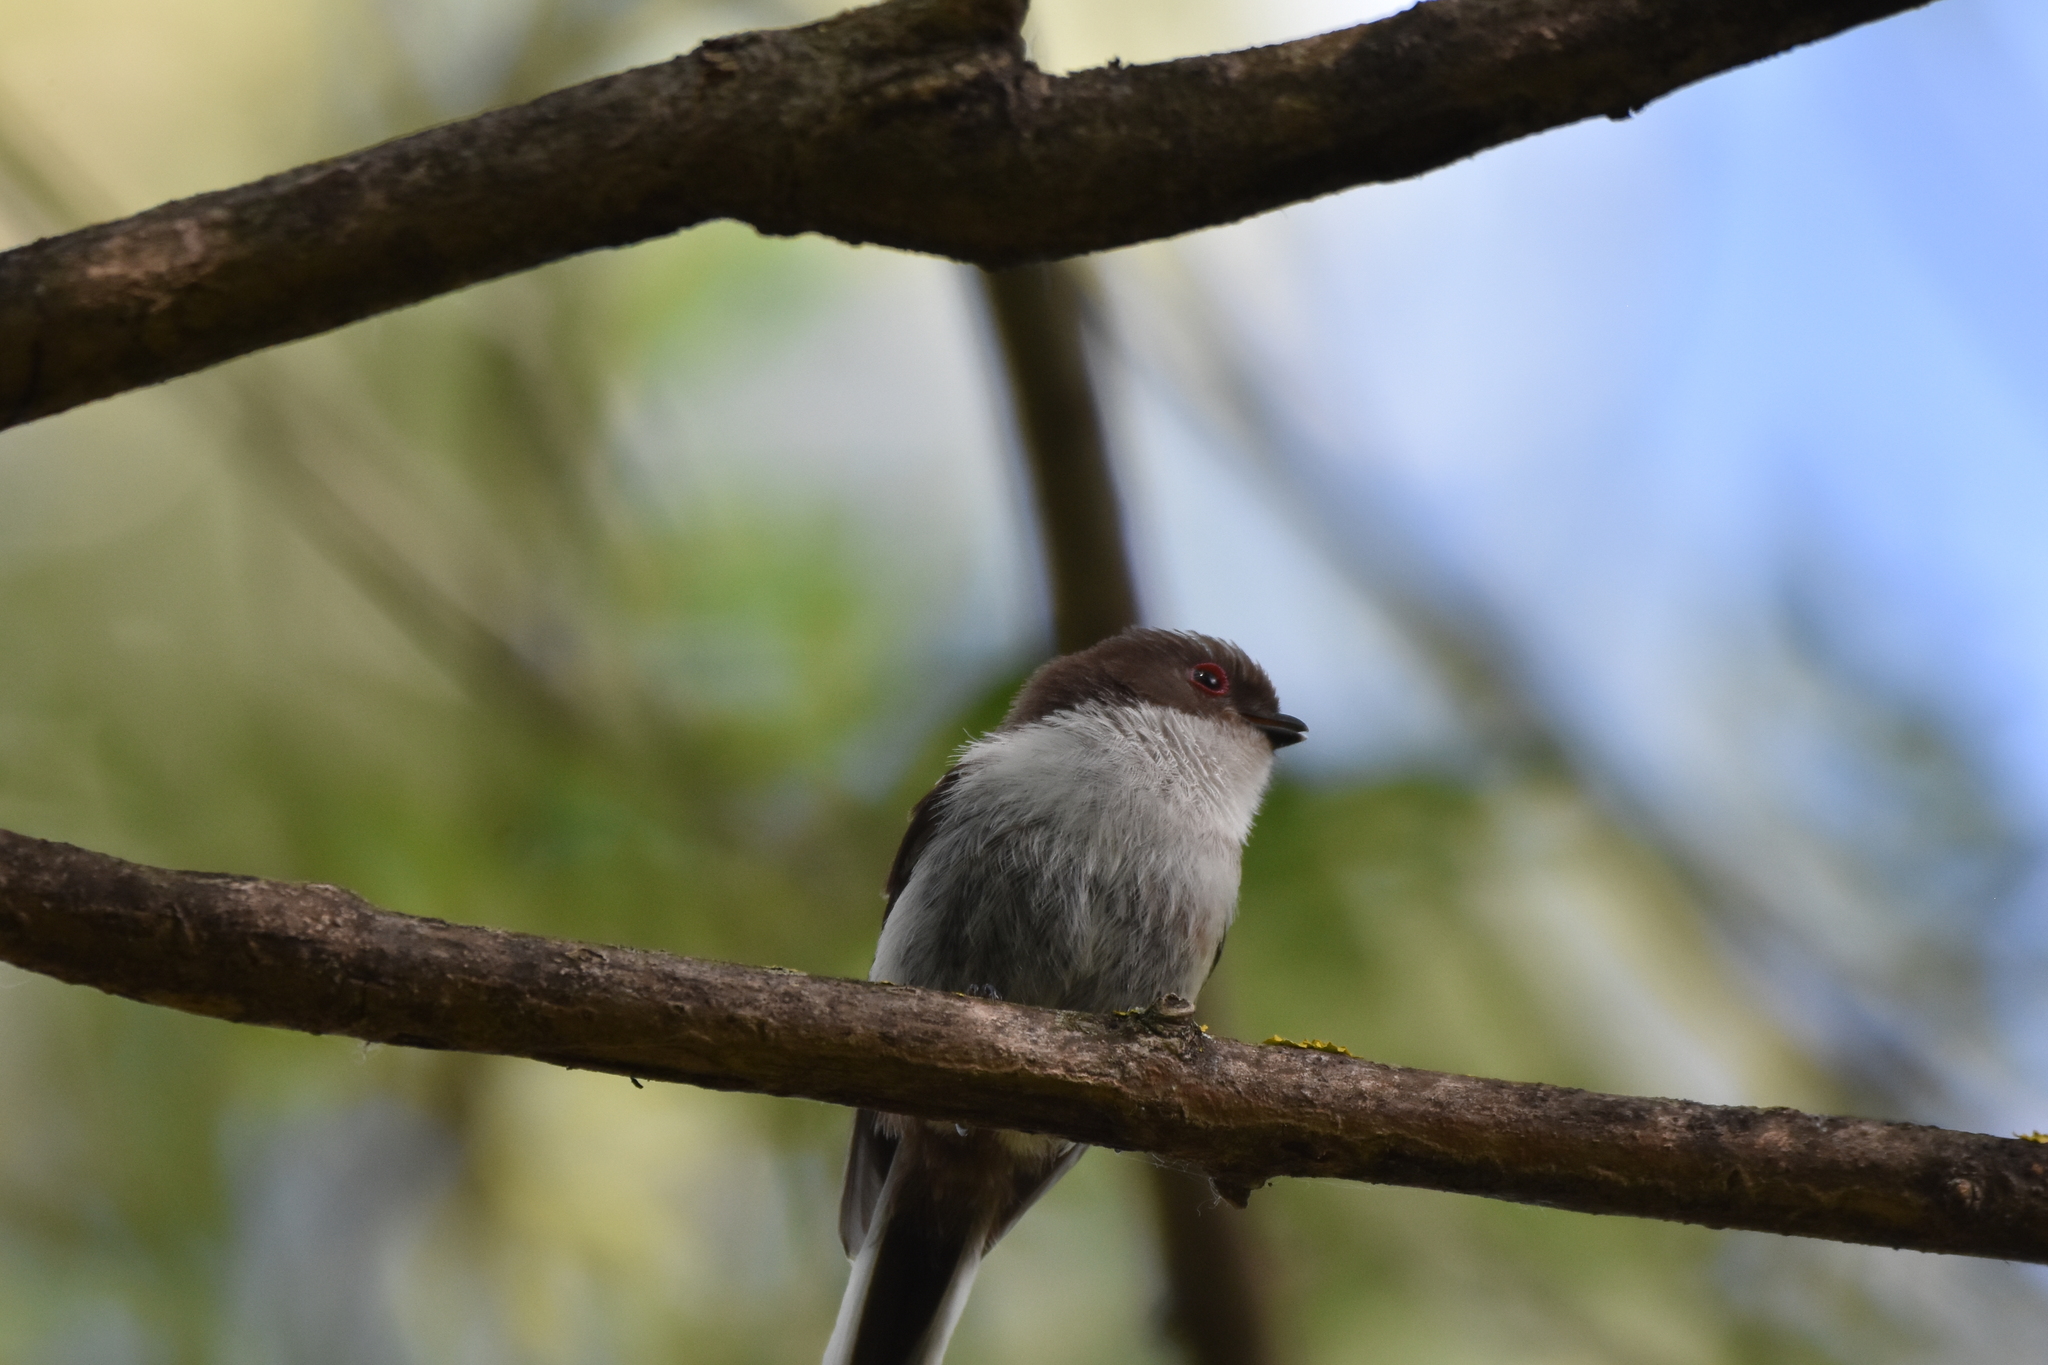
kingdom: Animalia
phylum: Chordata
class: Aves
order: Passeriformes
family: Aegithalidae
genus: Aegithalos
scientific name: Aegithalos caudatus
